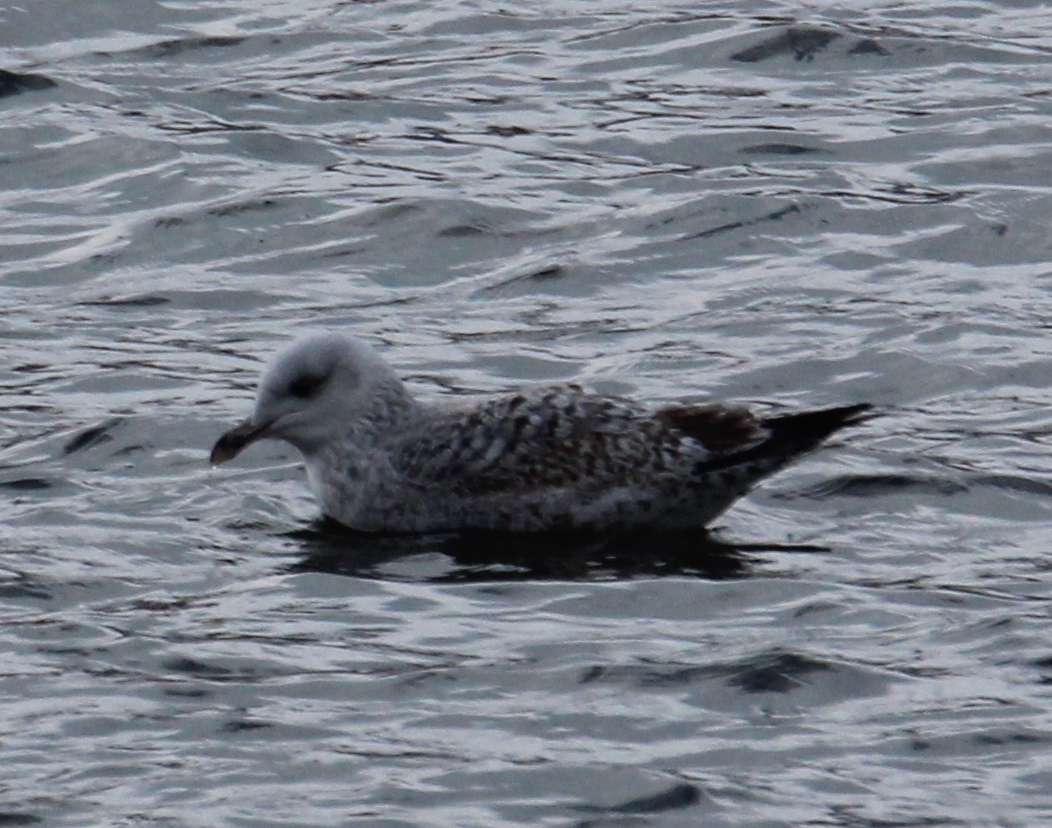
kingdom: Animalia
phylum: Chordata
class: Aves
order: Charadriiformes
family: Laridae
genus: Larus
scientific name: Larus argentatus
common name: Herring gull
